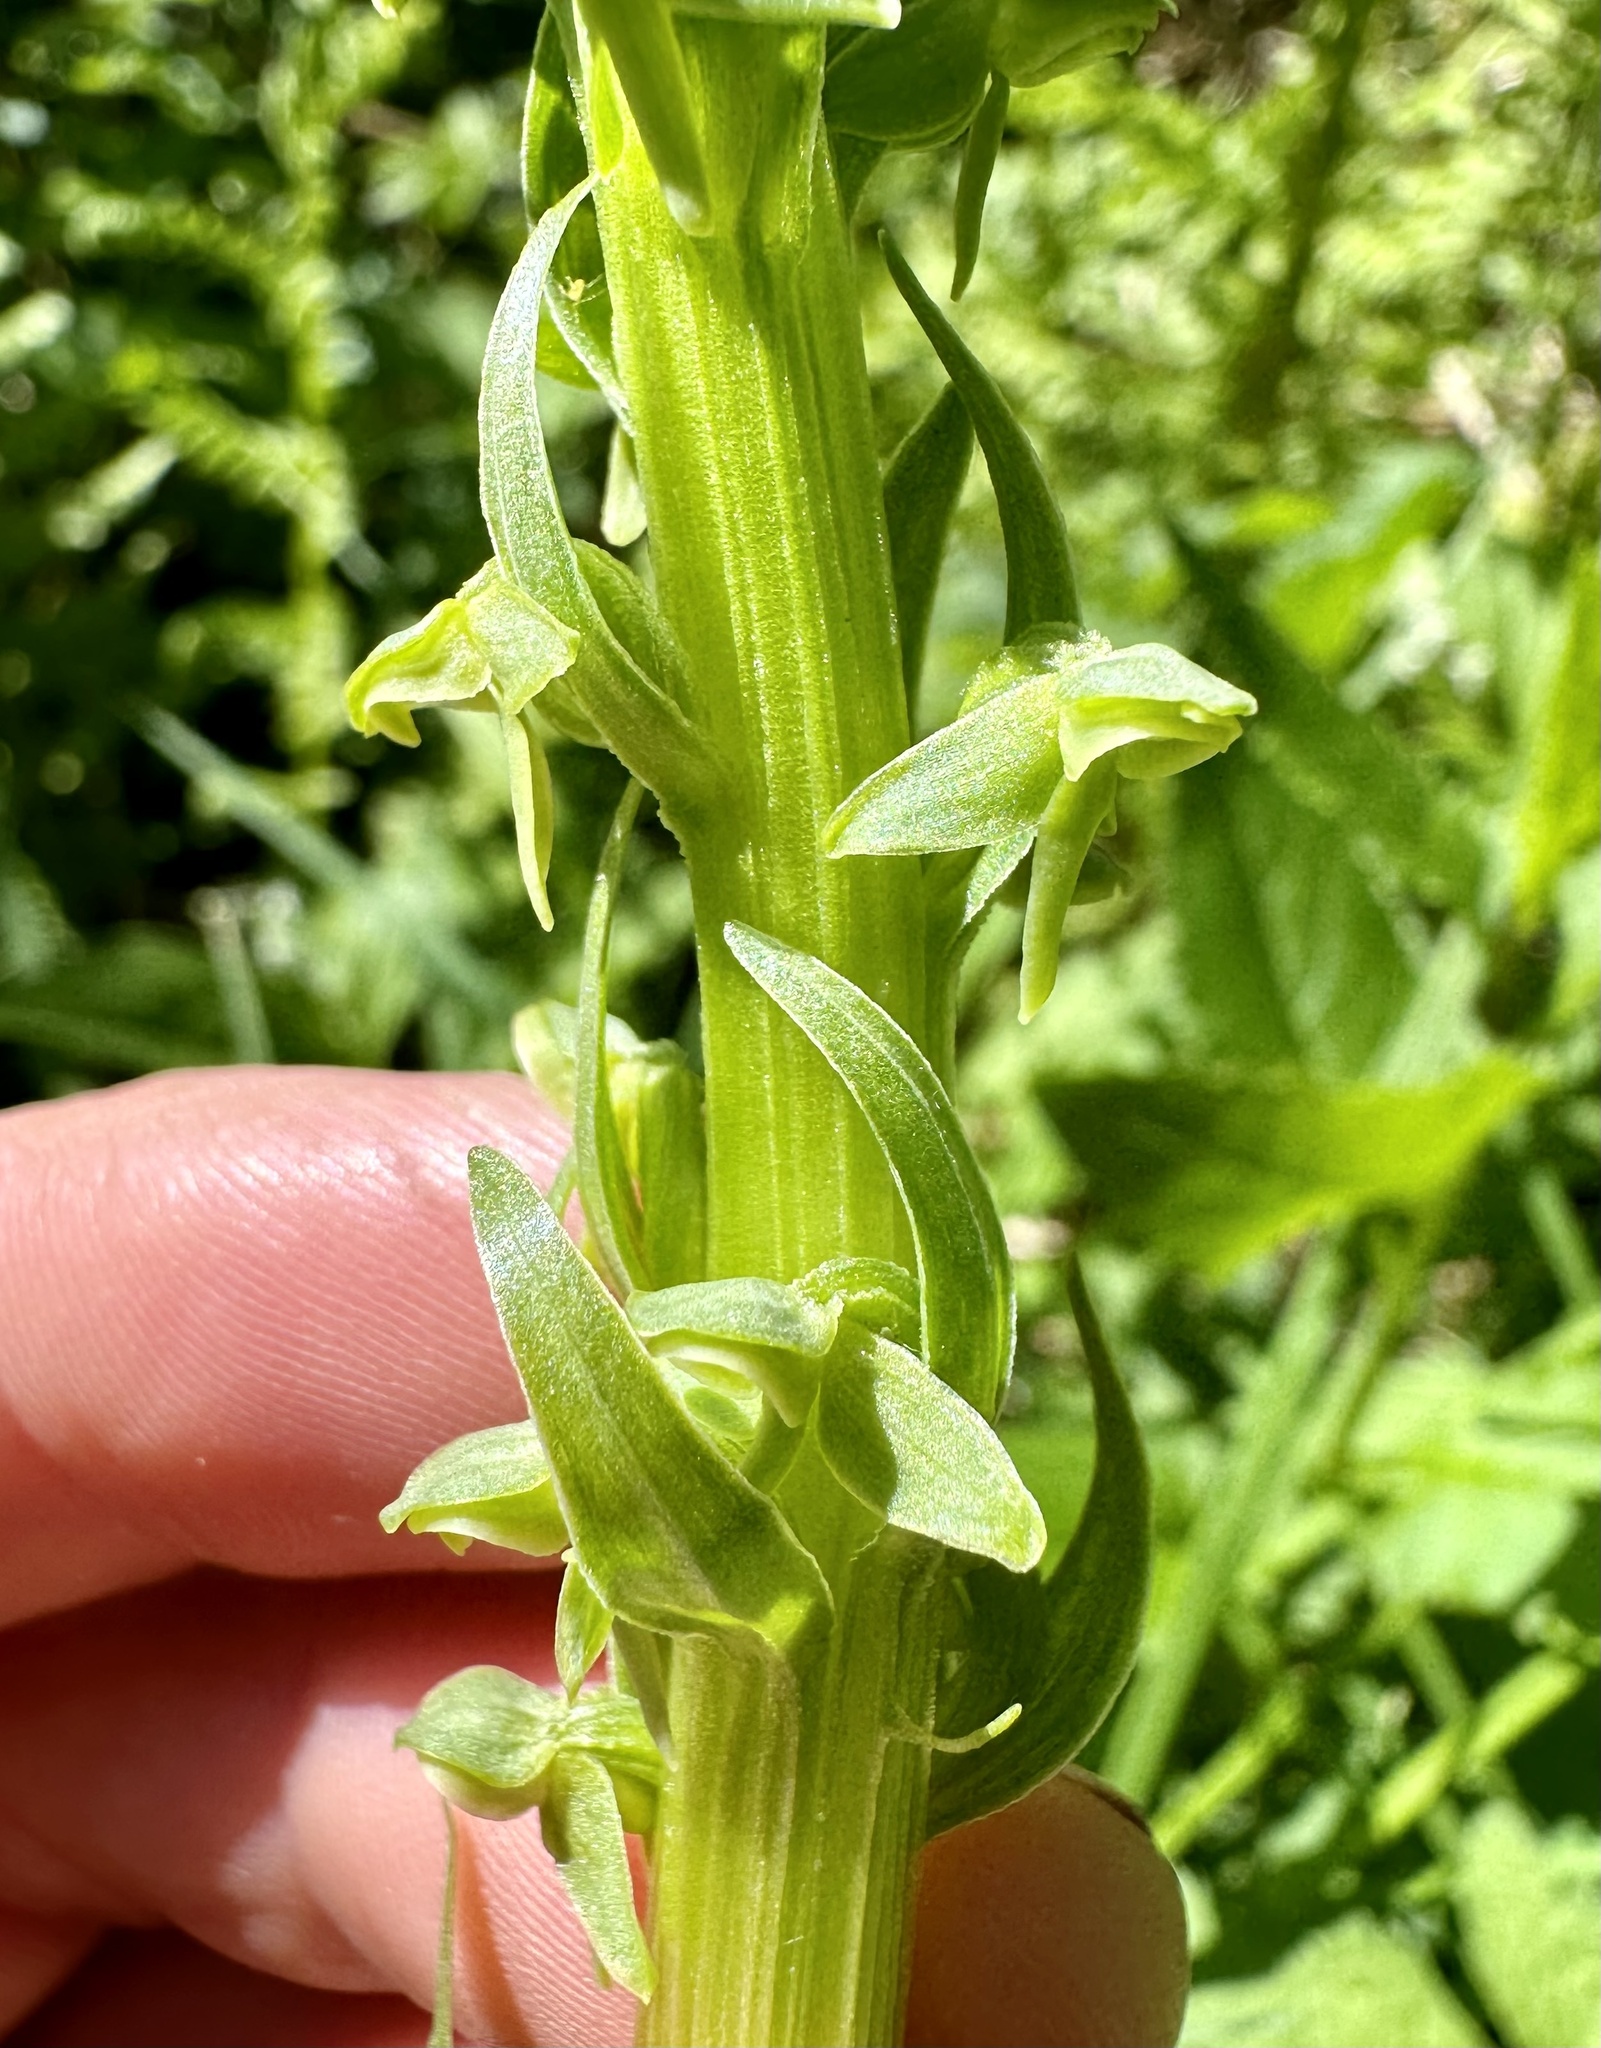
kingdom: Plantae
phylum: Tracheophyta
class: Liliopsida
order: Asparagales
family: Orchidaceae
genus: Platanthera
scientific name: Platanthera stricta
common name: Slender bog orchid
